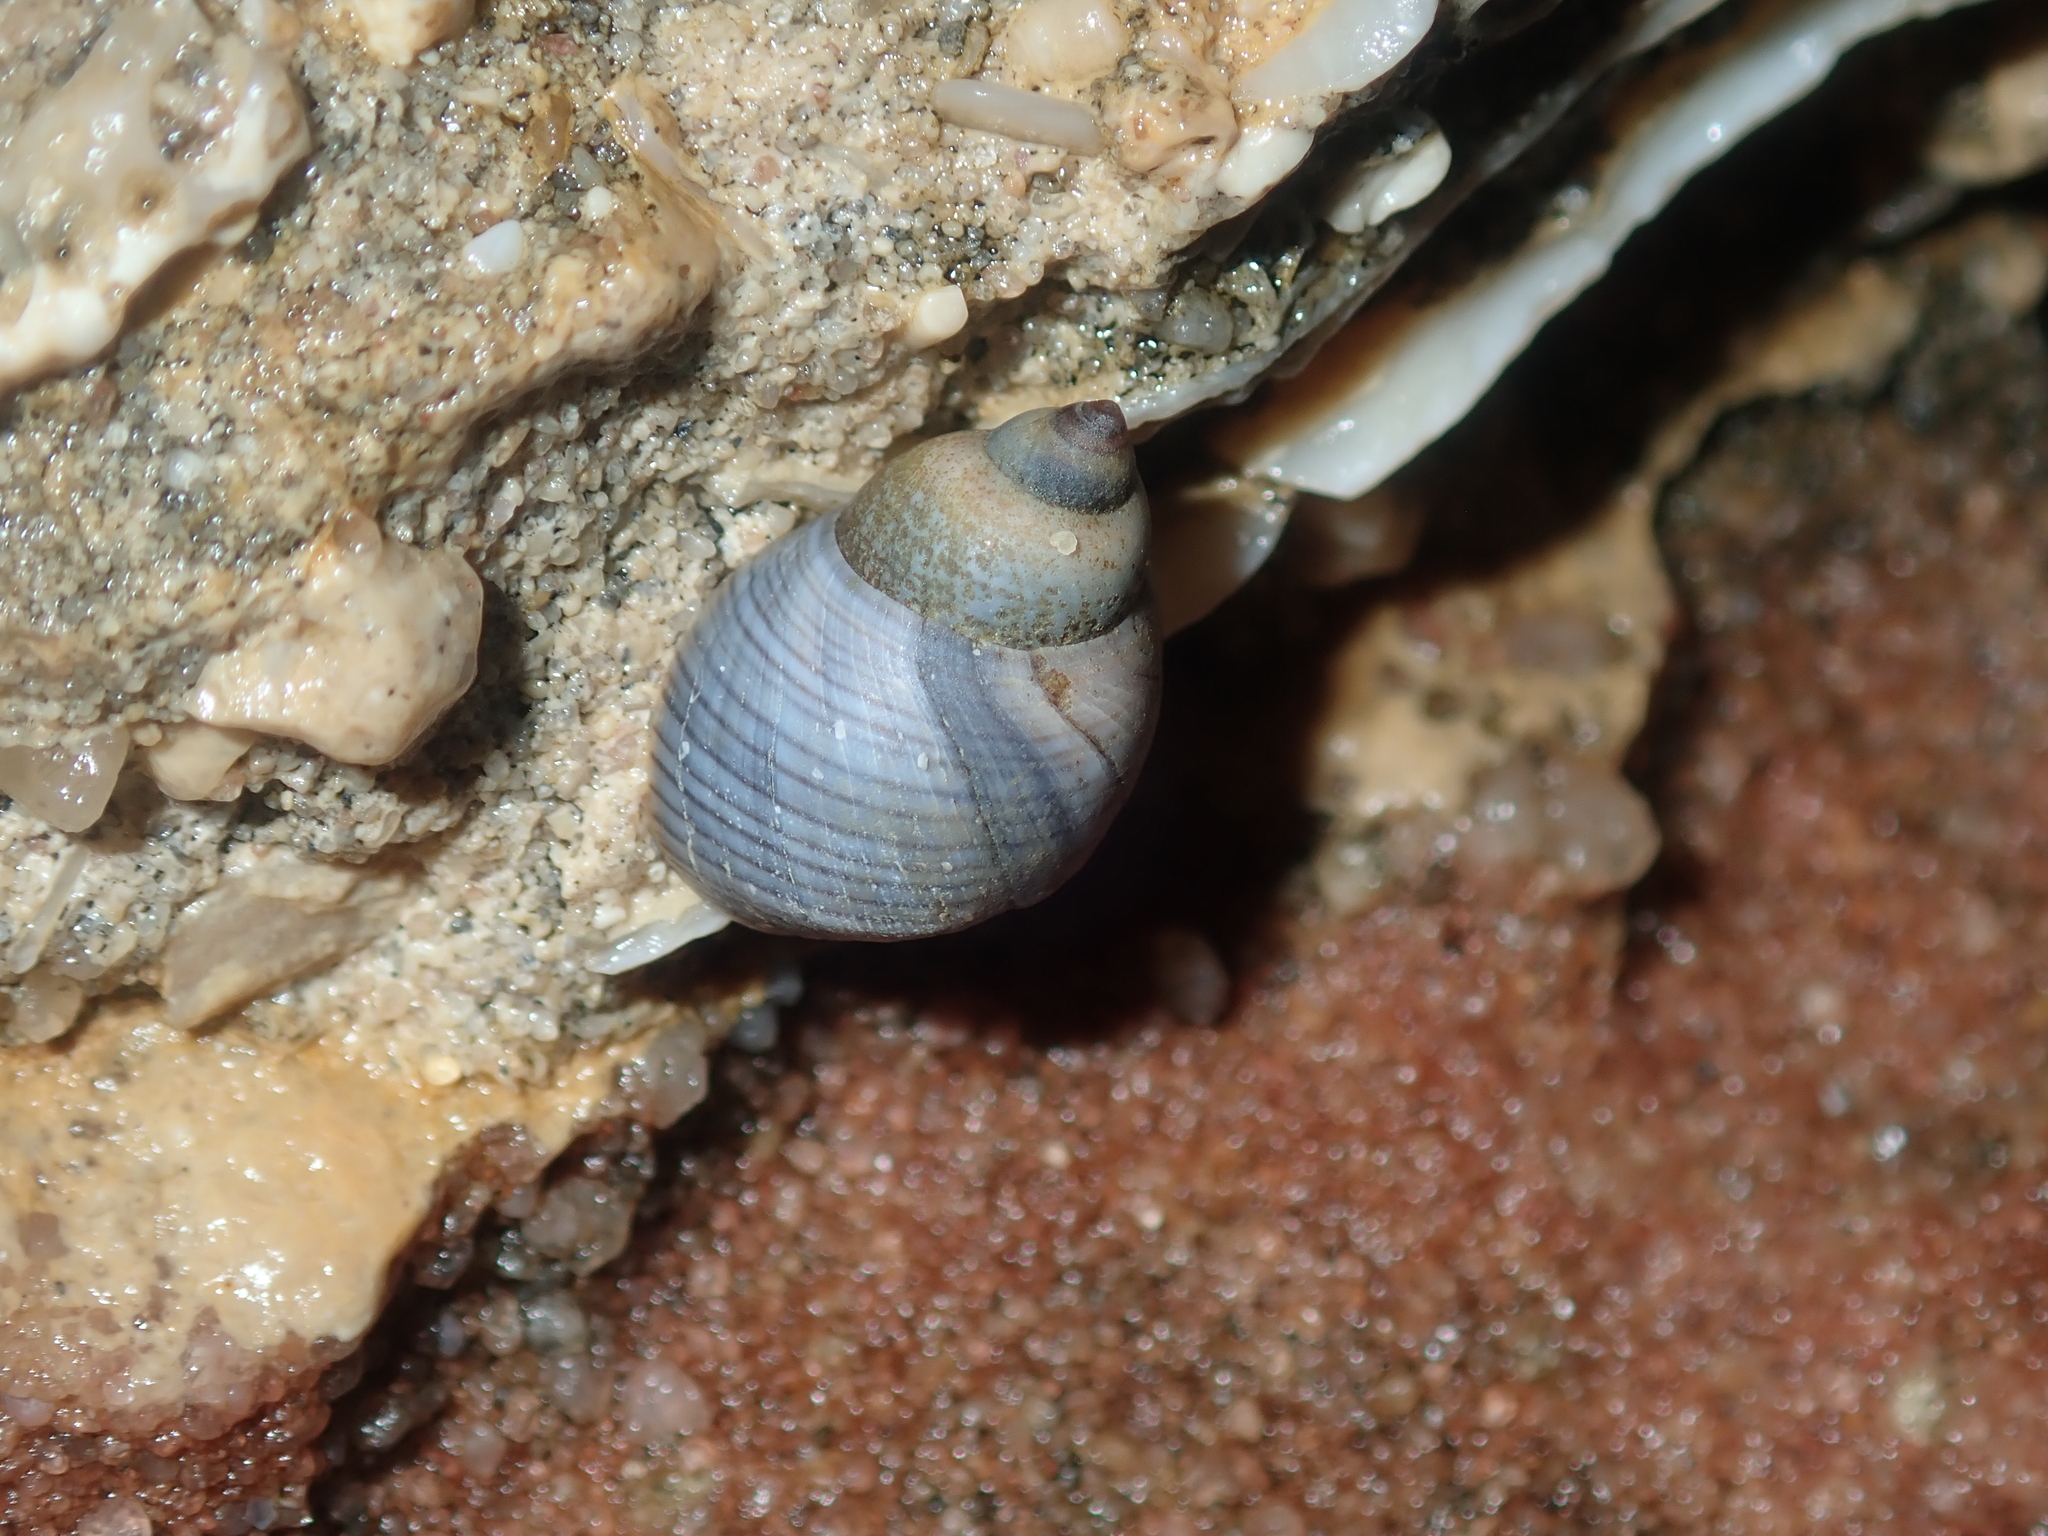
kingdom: Animalia
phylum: Mollusca
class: Gastropoda
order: Littorinimorpha
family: Littorinidae
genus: Austrolittorina
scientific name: Austrolittorina unifasciata
